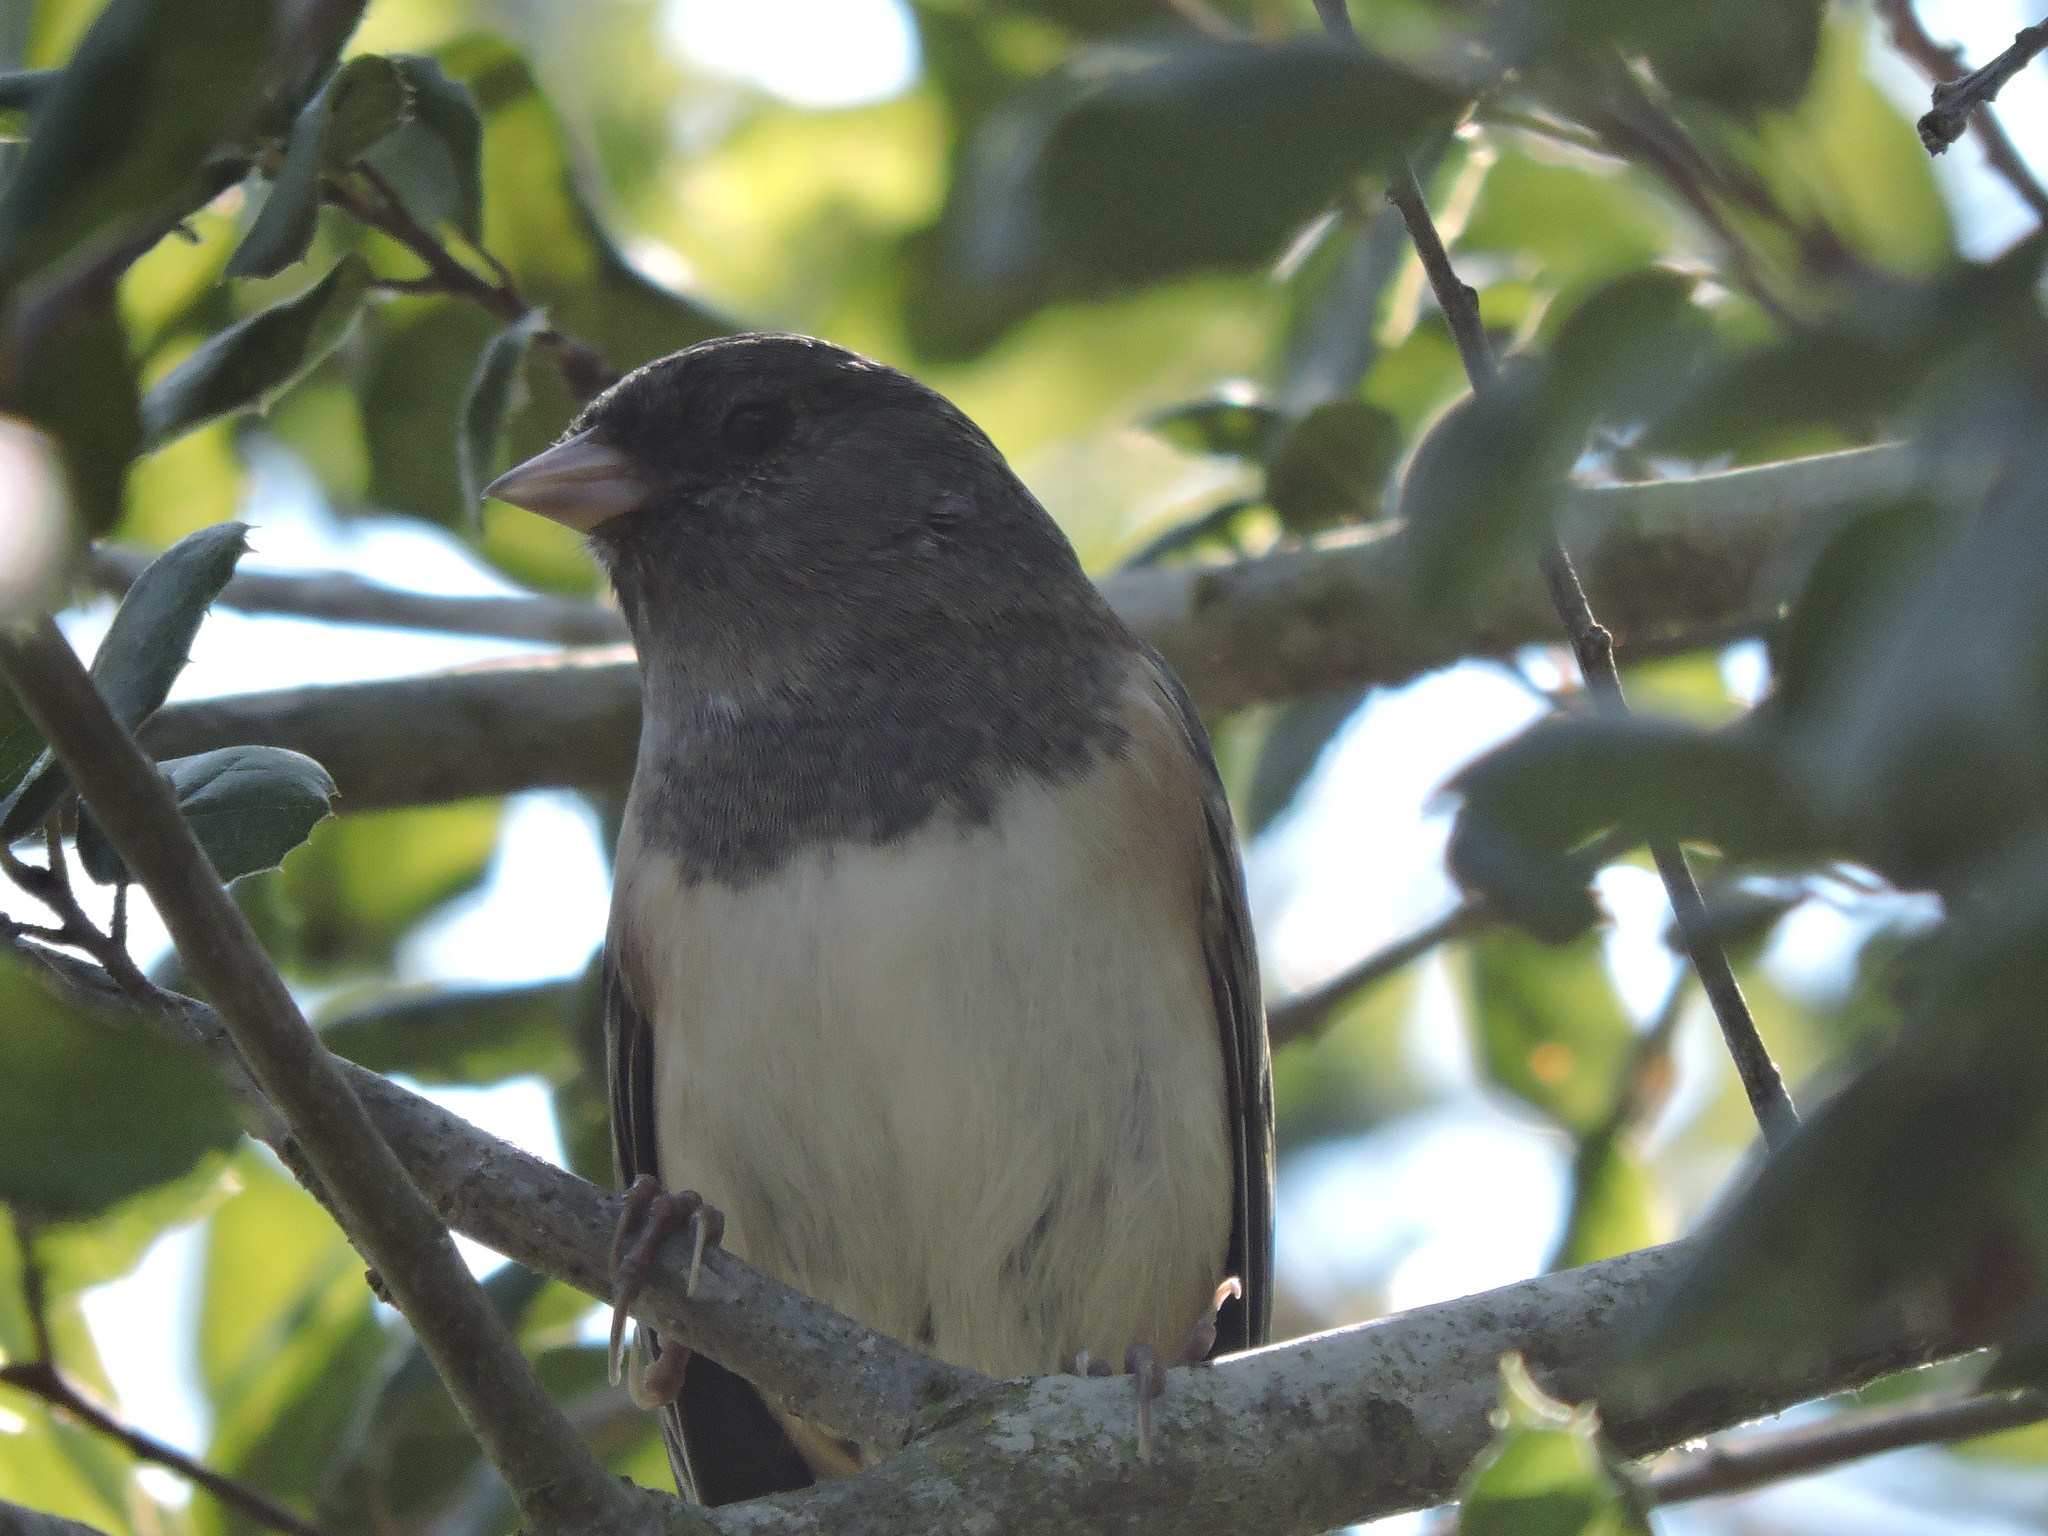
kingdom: Animalia
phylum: Chordata
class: Aves
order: Passeriformes
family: Passerellidae
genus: Junco
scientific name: Junco hyemalis
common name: Dark-eyed junco
